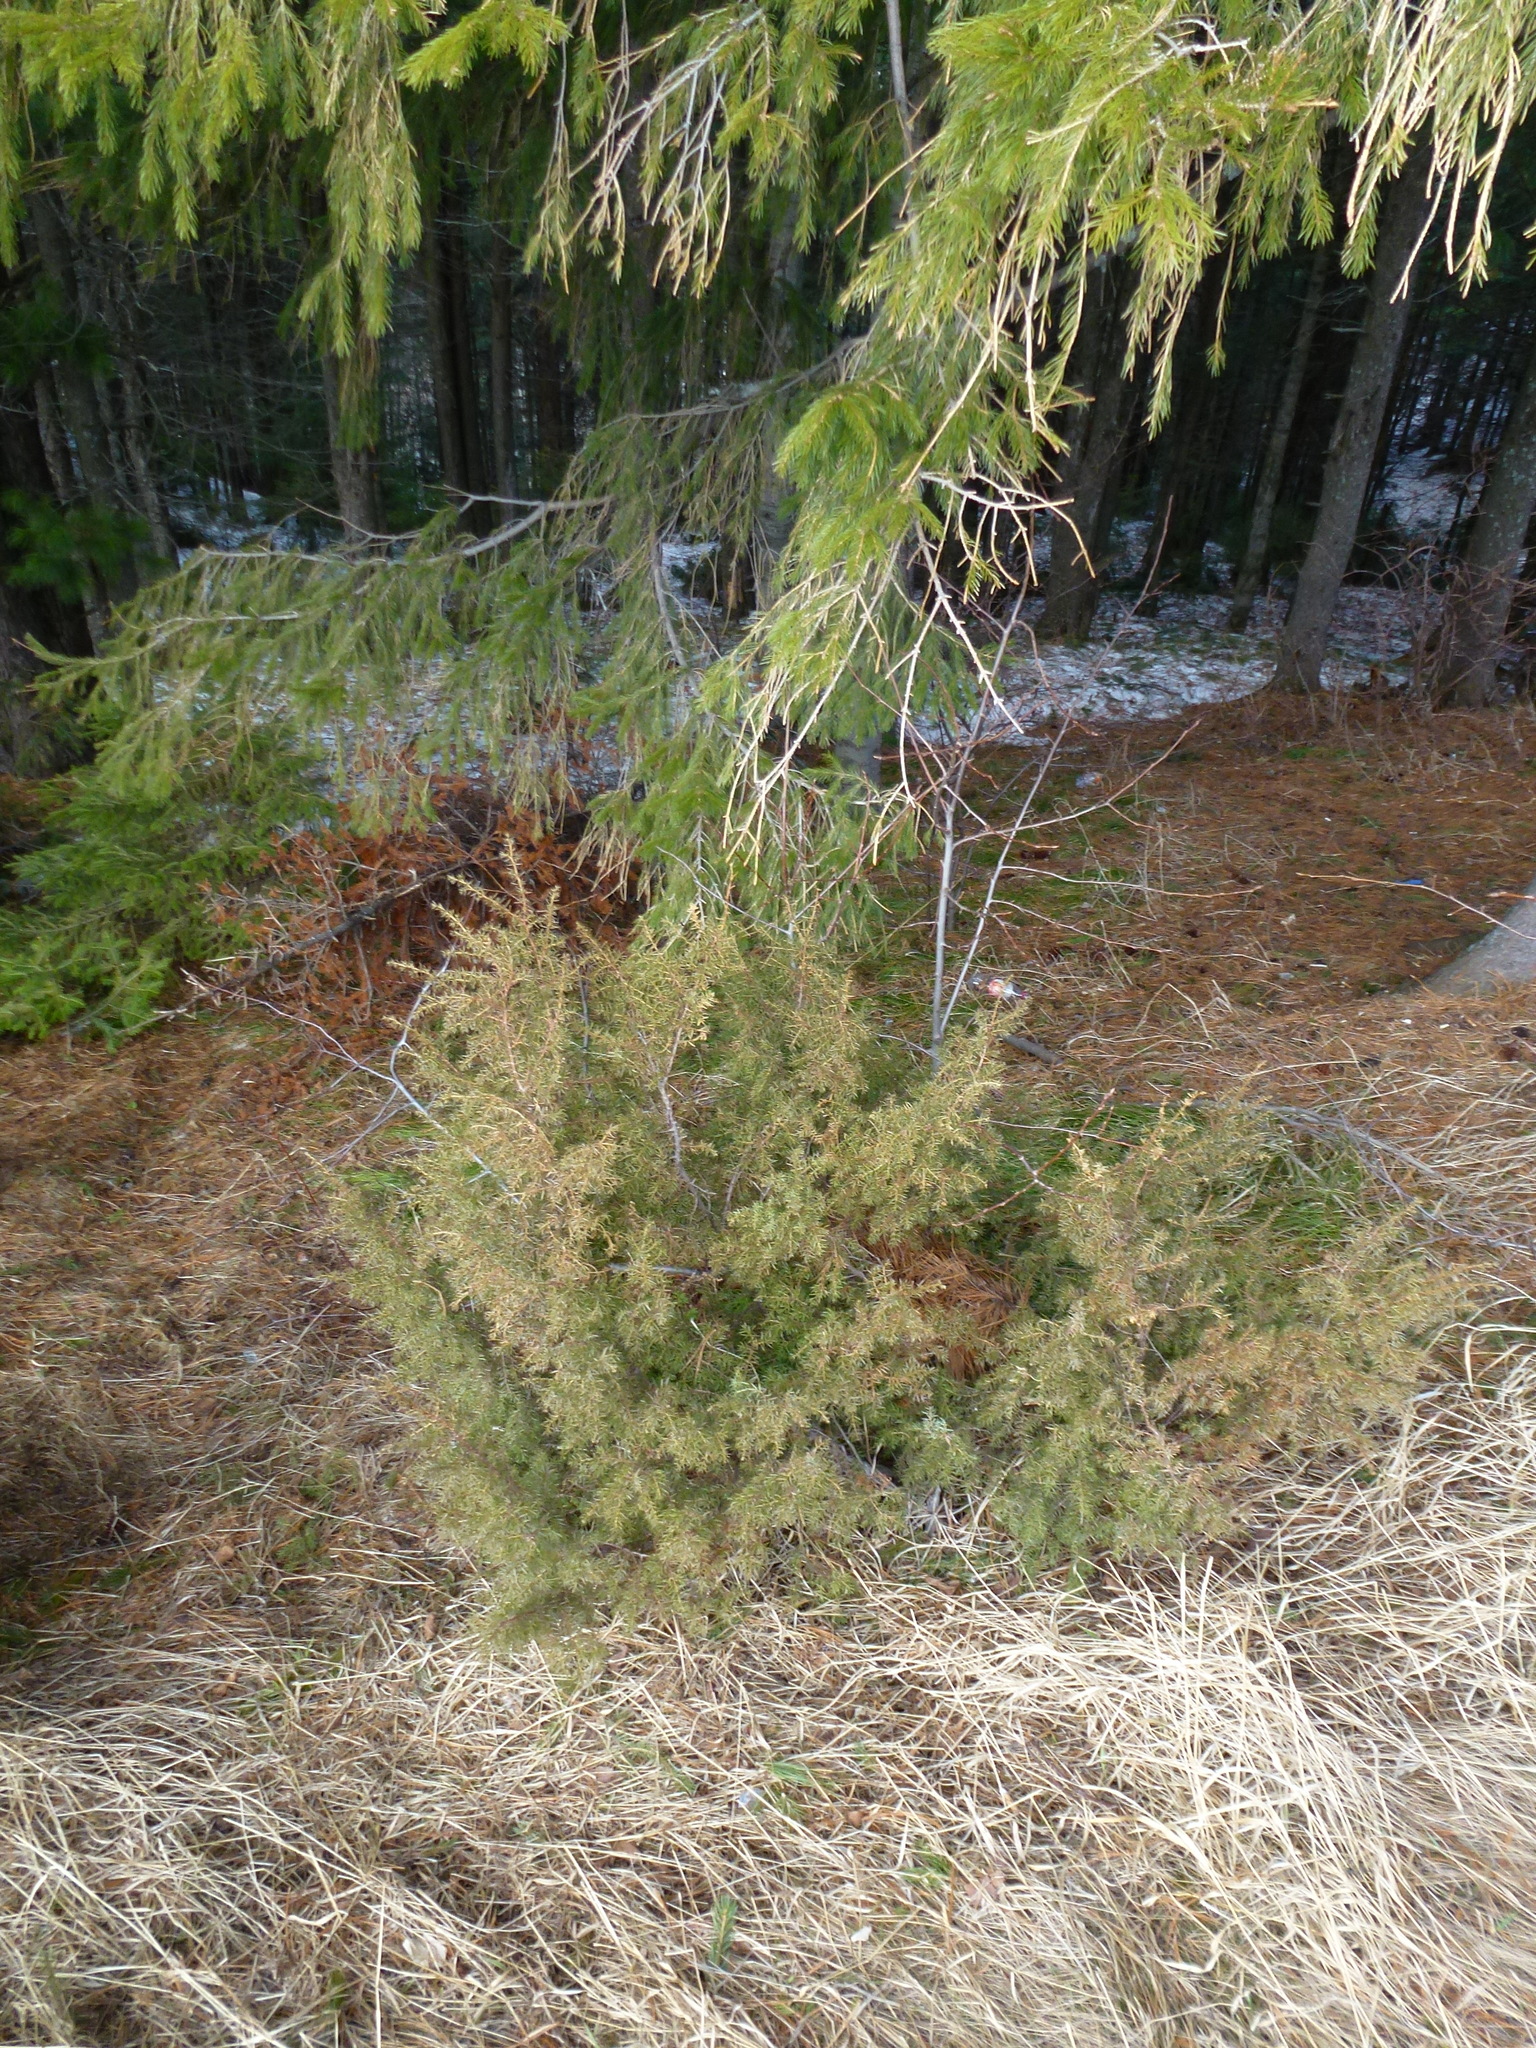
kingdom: Plantae
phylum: Tracheophyta
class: Pinopsida
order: Pinales
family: Cupressaceae
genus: Juniperus
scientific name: Juniperus communis
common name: Common juniper
